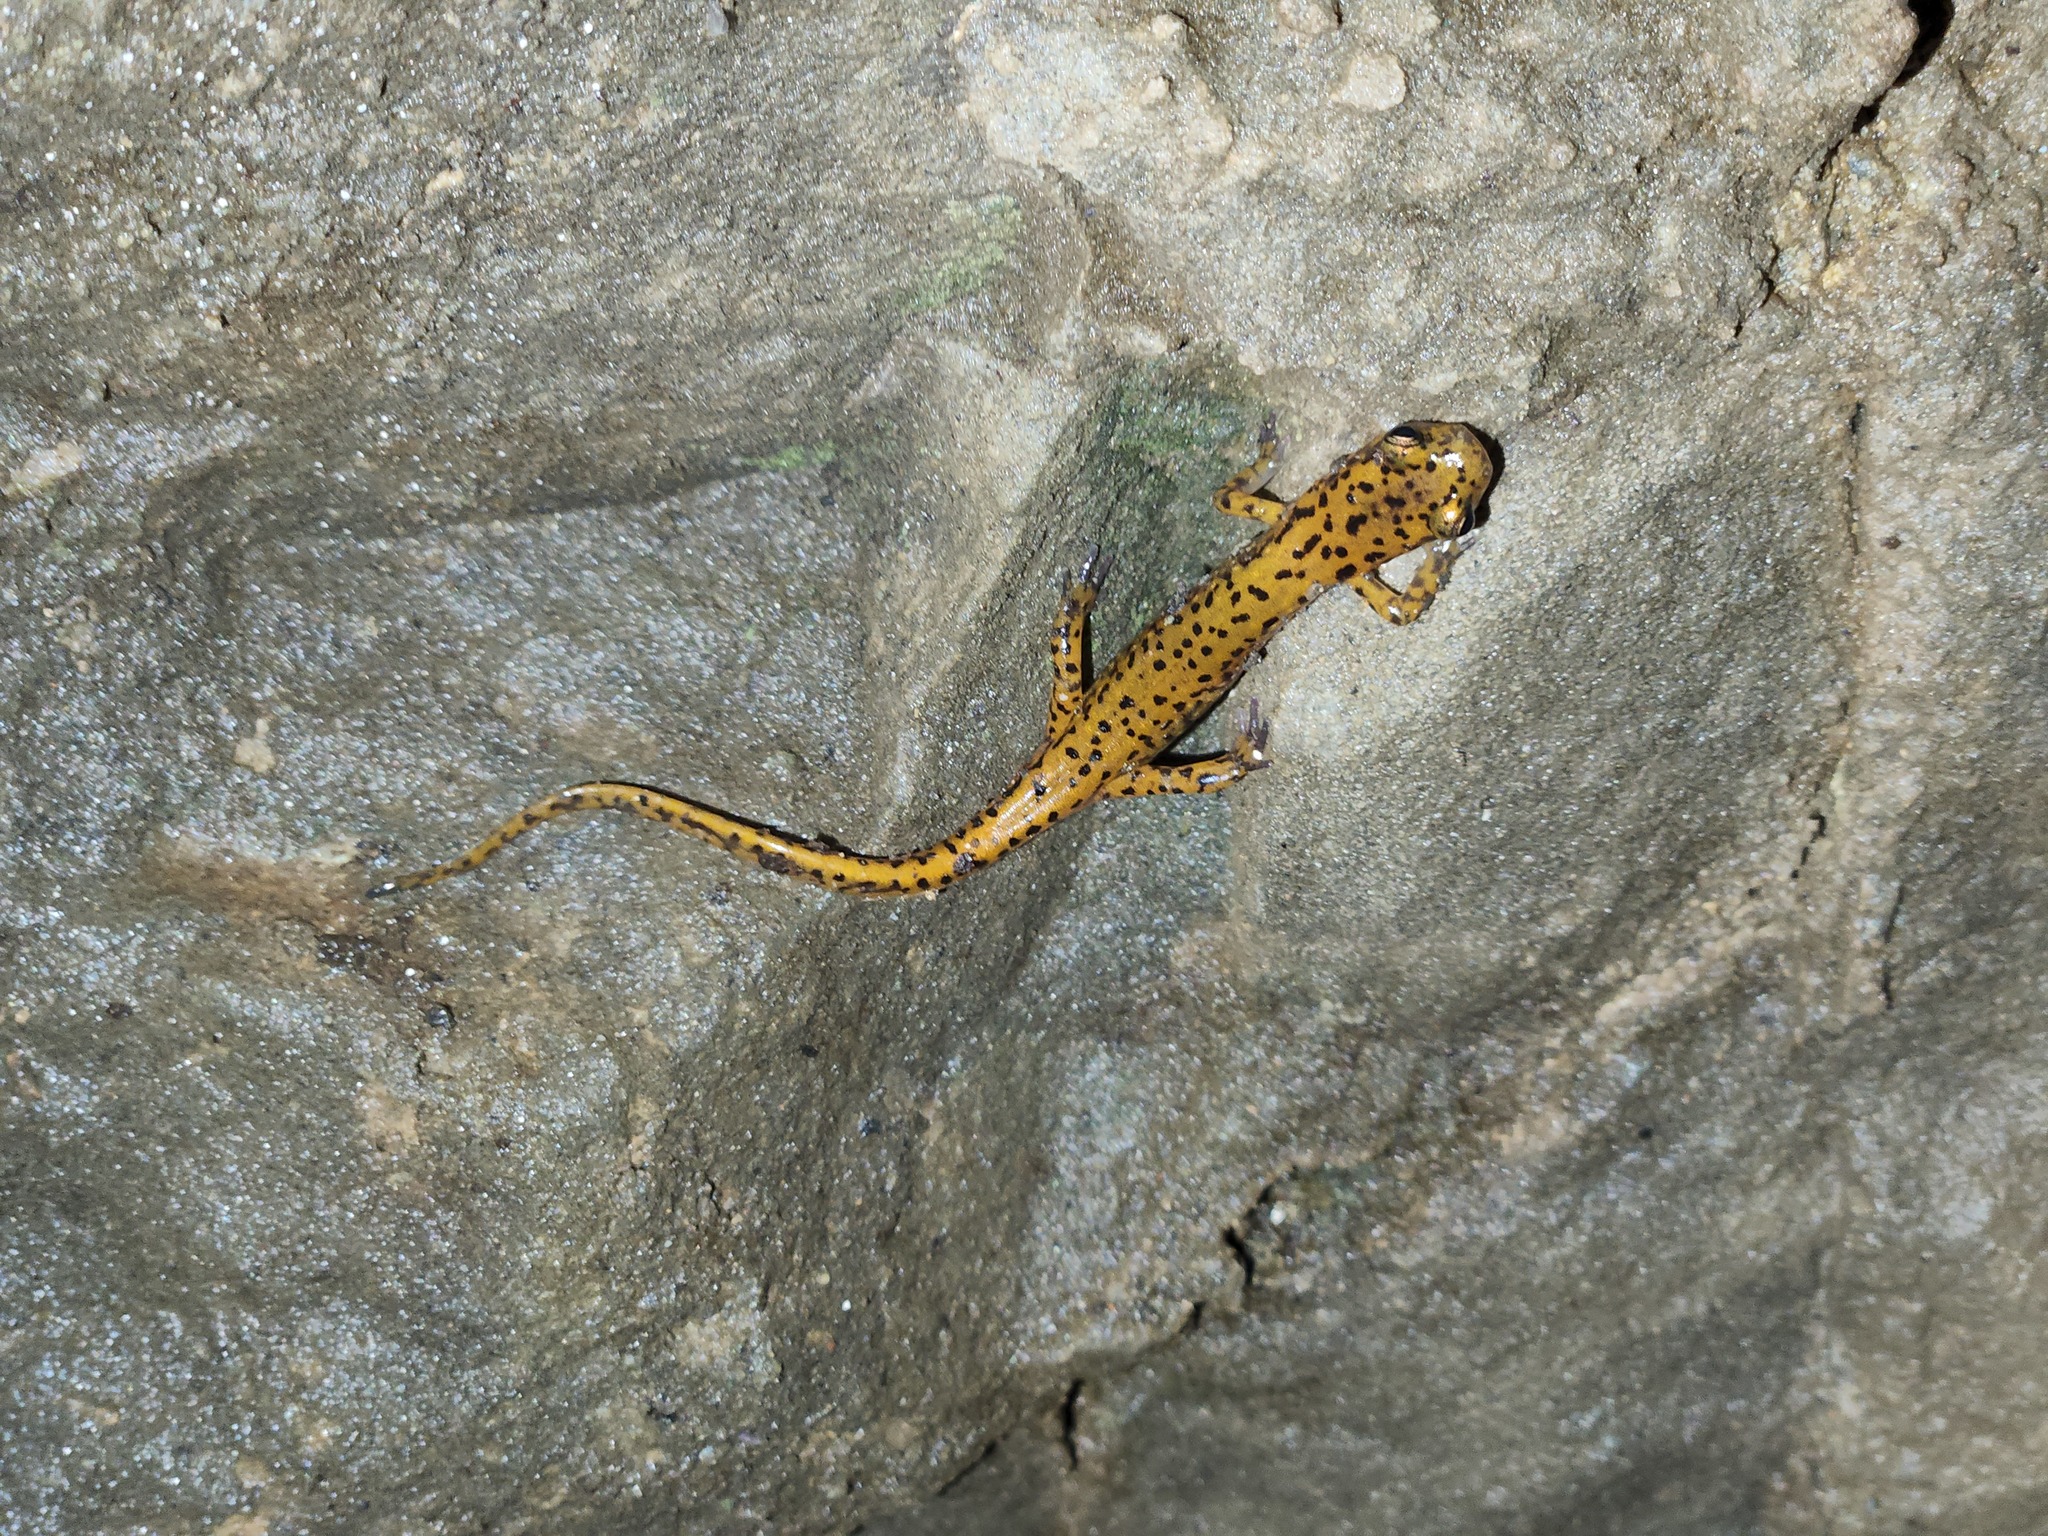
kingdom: Animalia
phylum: Chordata
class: Amphibia
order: Caudata
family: Plethodontidae
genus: Eurycea
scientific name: Eurycea lucifuga
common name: Cave salamander
